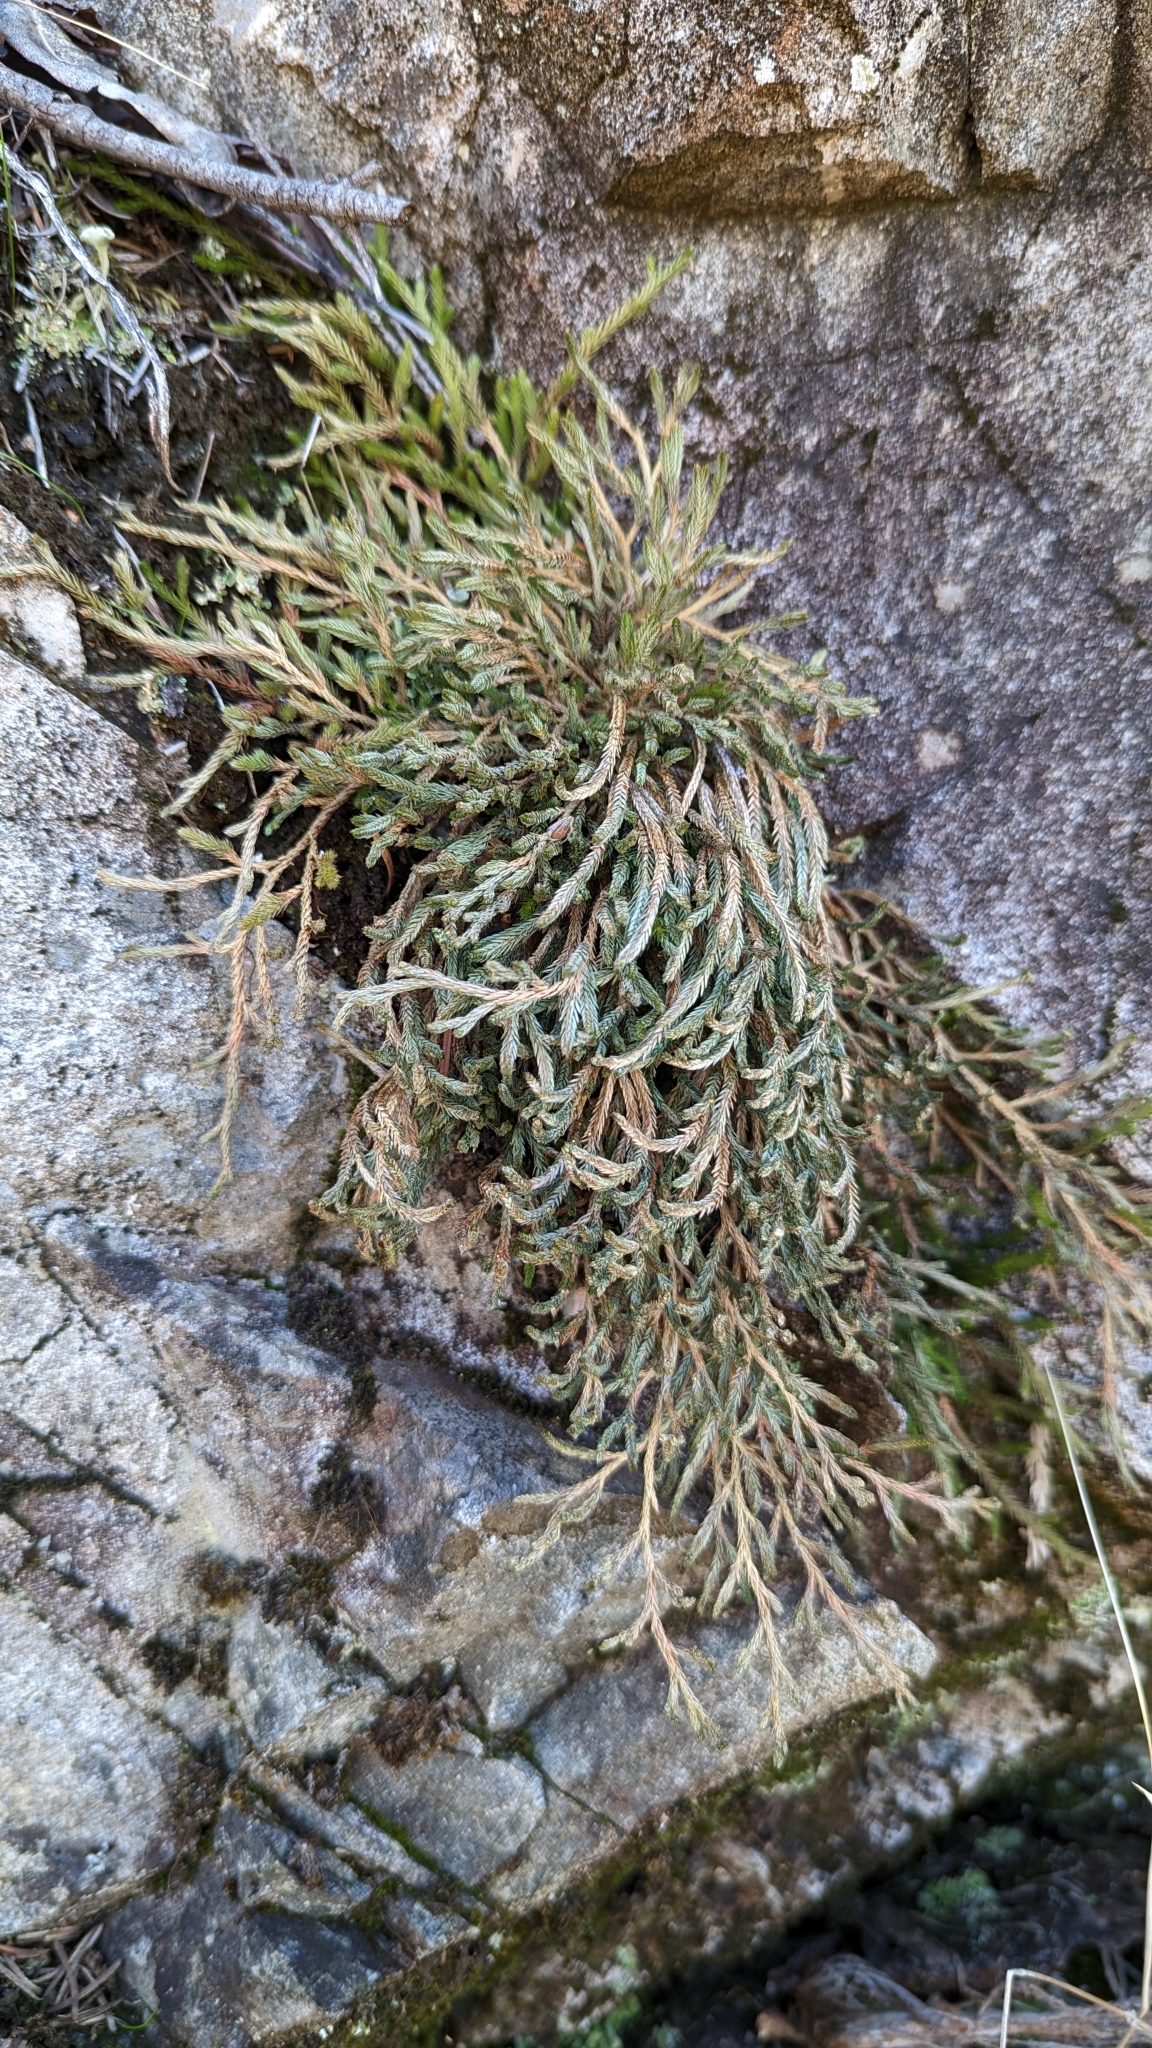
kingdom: Plantae
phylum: Tracheophyta
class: Lycopodiopsida
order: Selaginellales
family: Selaginellaceae
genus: Selaginella
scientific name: Selaginella wallacei
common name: Wallace's selaginella
